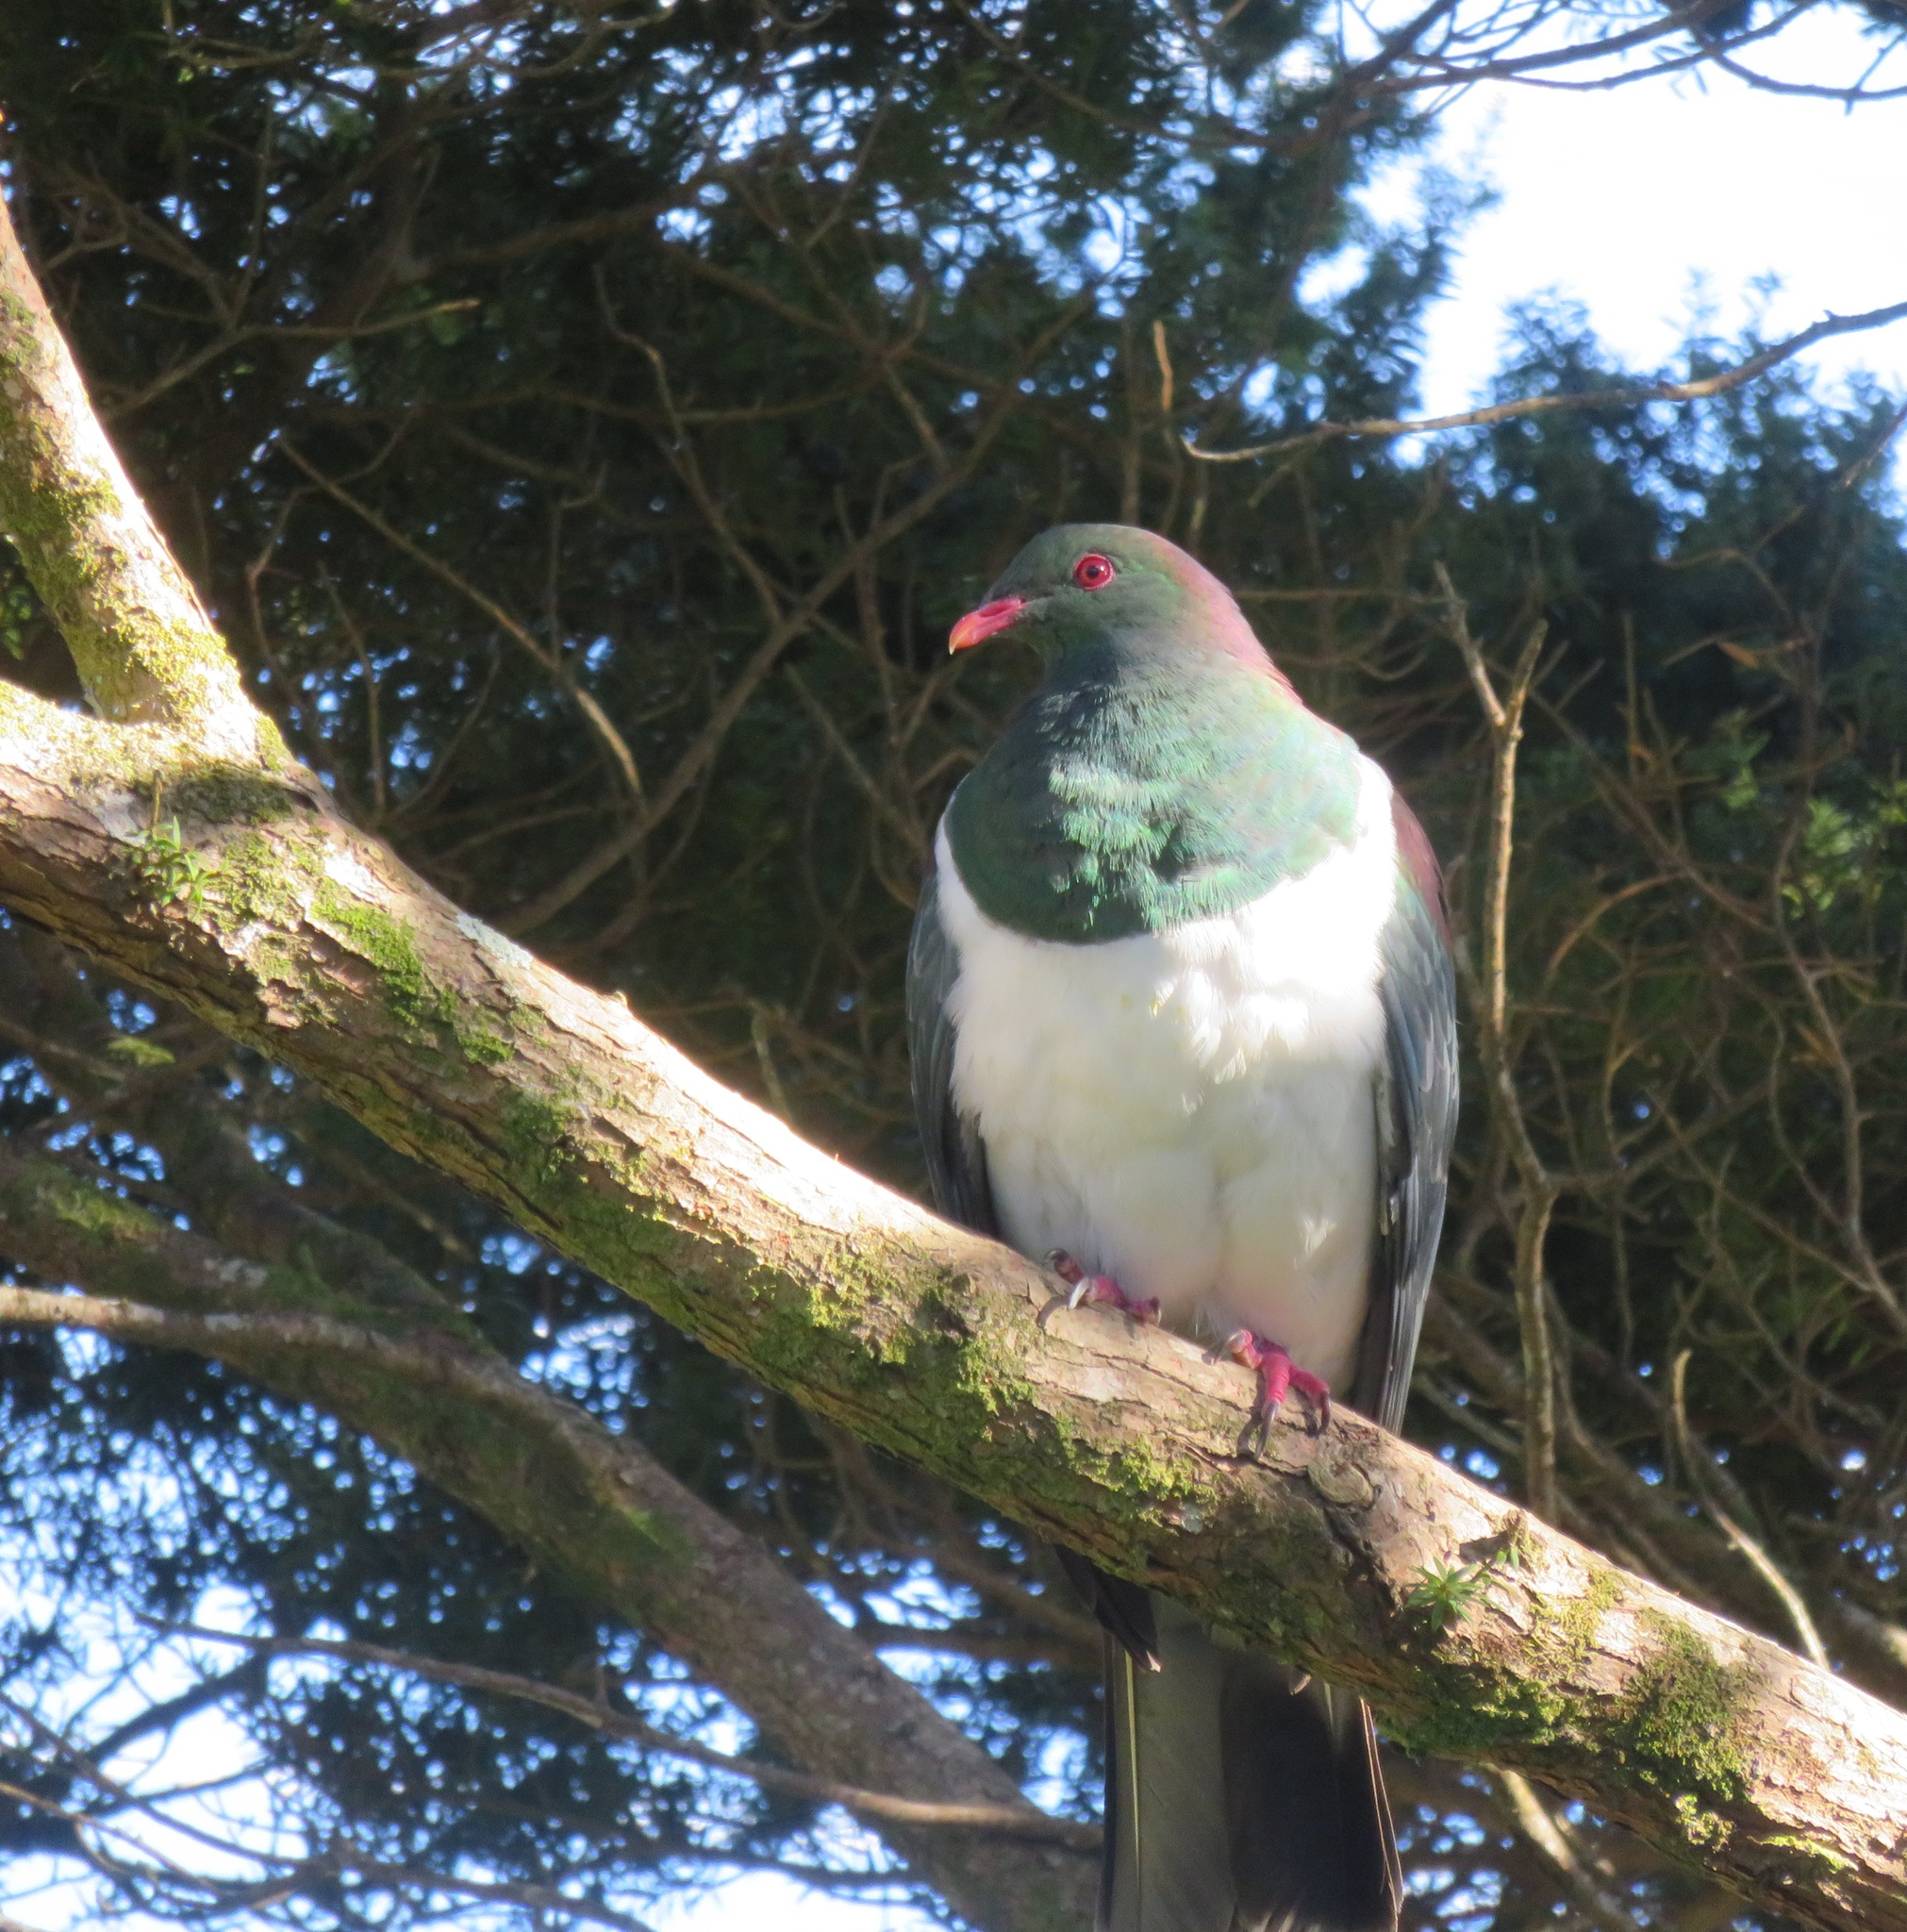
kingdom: Animalia
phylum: Chordata
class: Aves
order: Columbiformes
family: Columbidae
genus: Hemiphaga
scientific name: Hemiphaga novaeseelandiae
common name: New zealand pigeon
